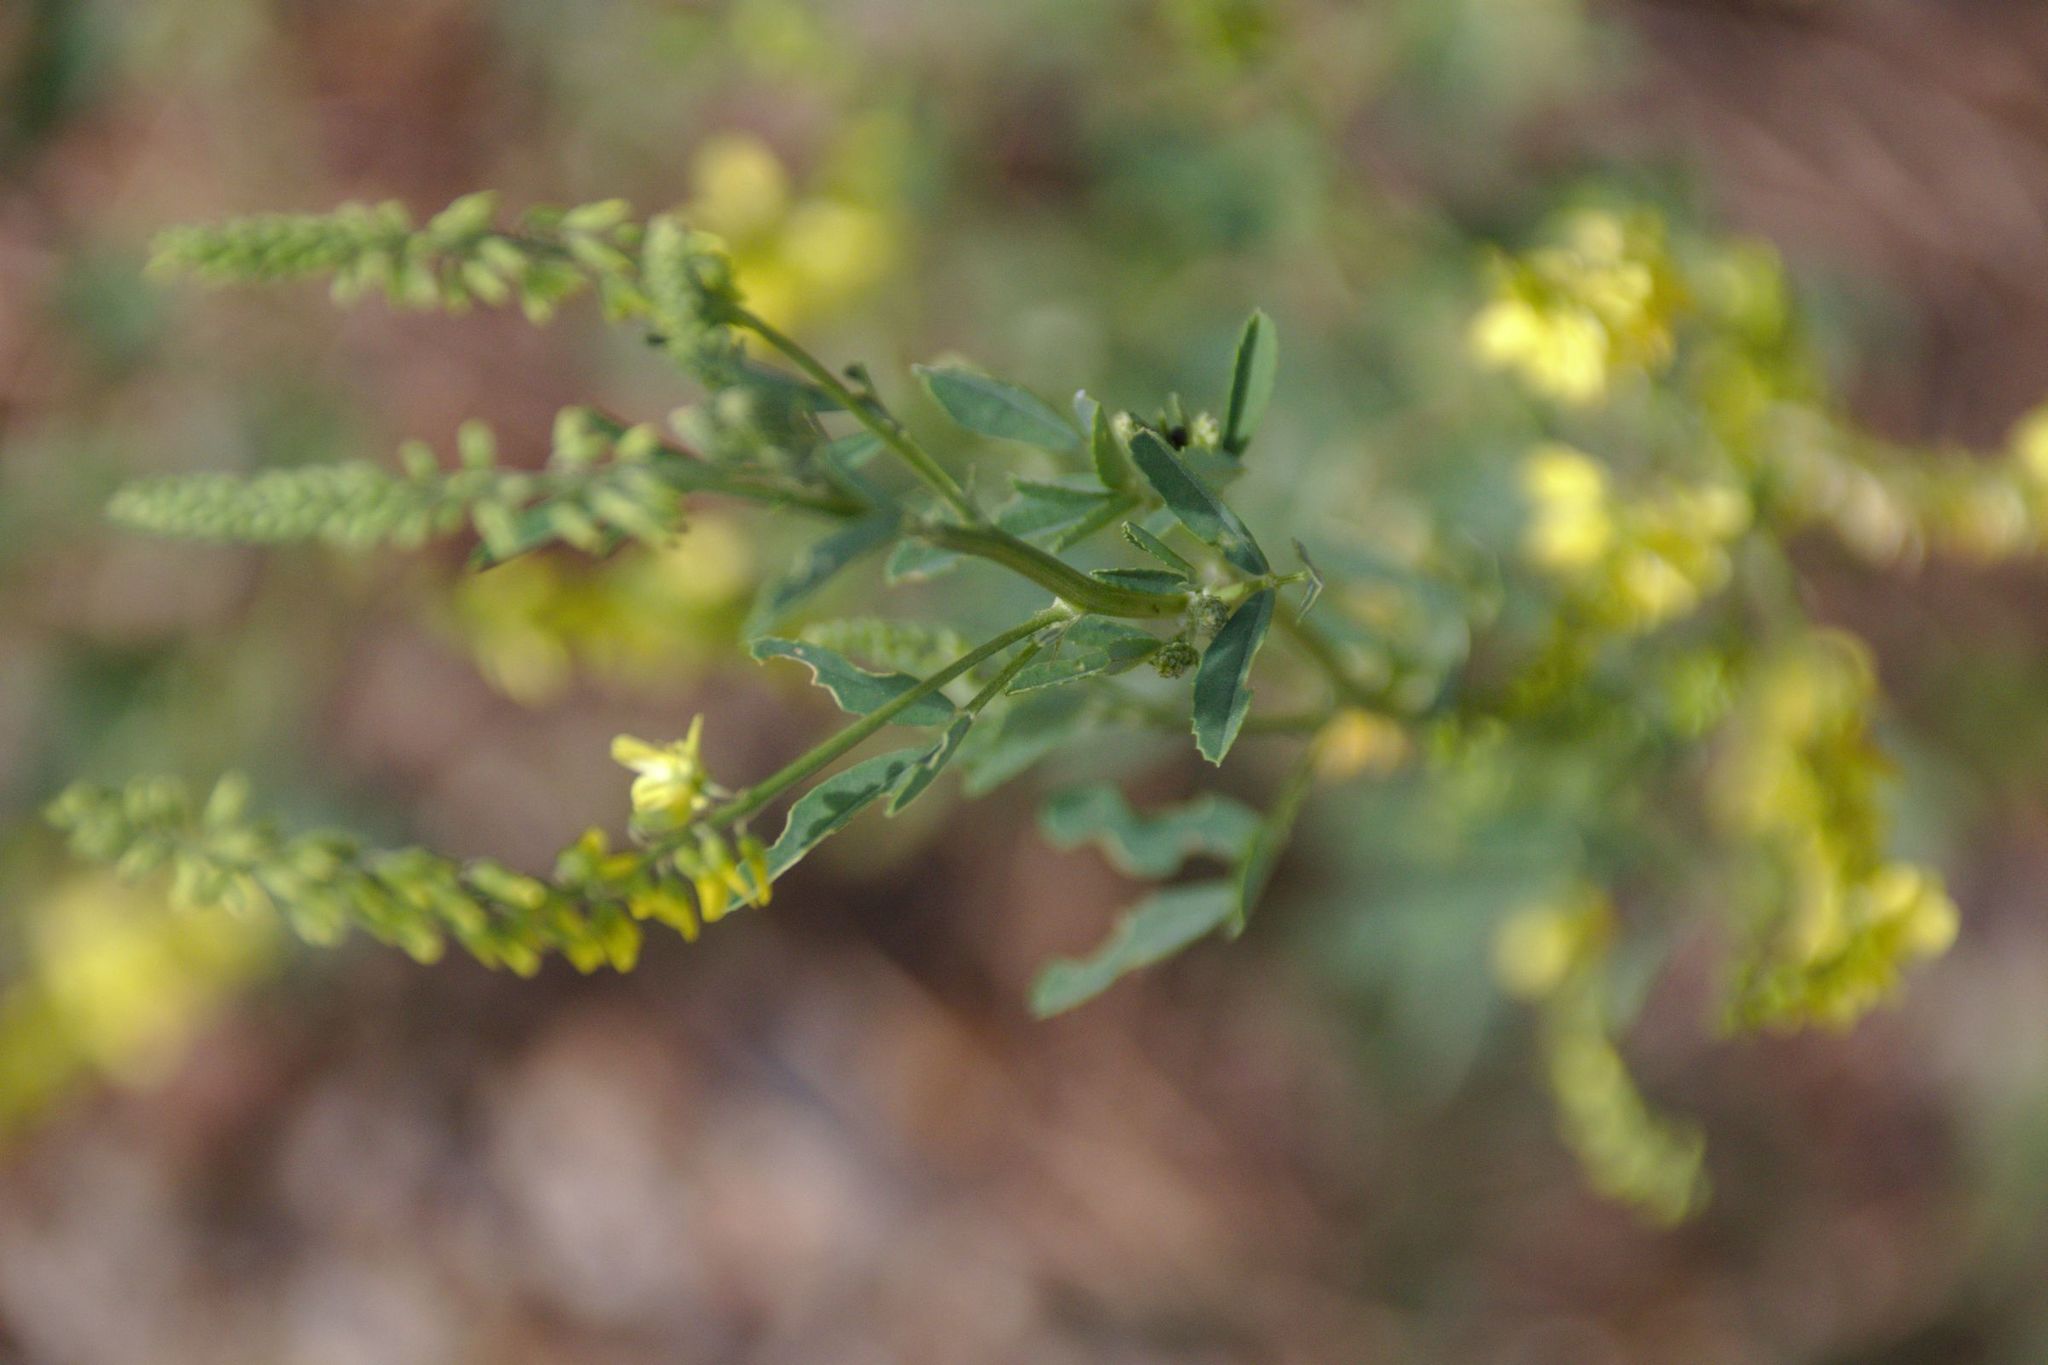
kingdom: Plantae
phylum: Tracheophyta
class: Magnoliopsida
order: Fabales
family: Fabaceae
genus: Melilotus
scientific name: Melilotus officinalis
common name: Sweetclover
